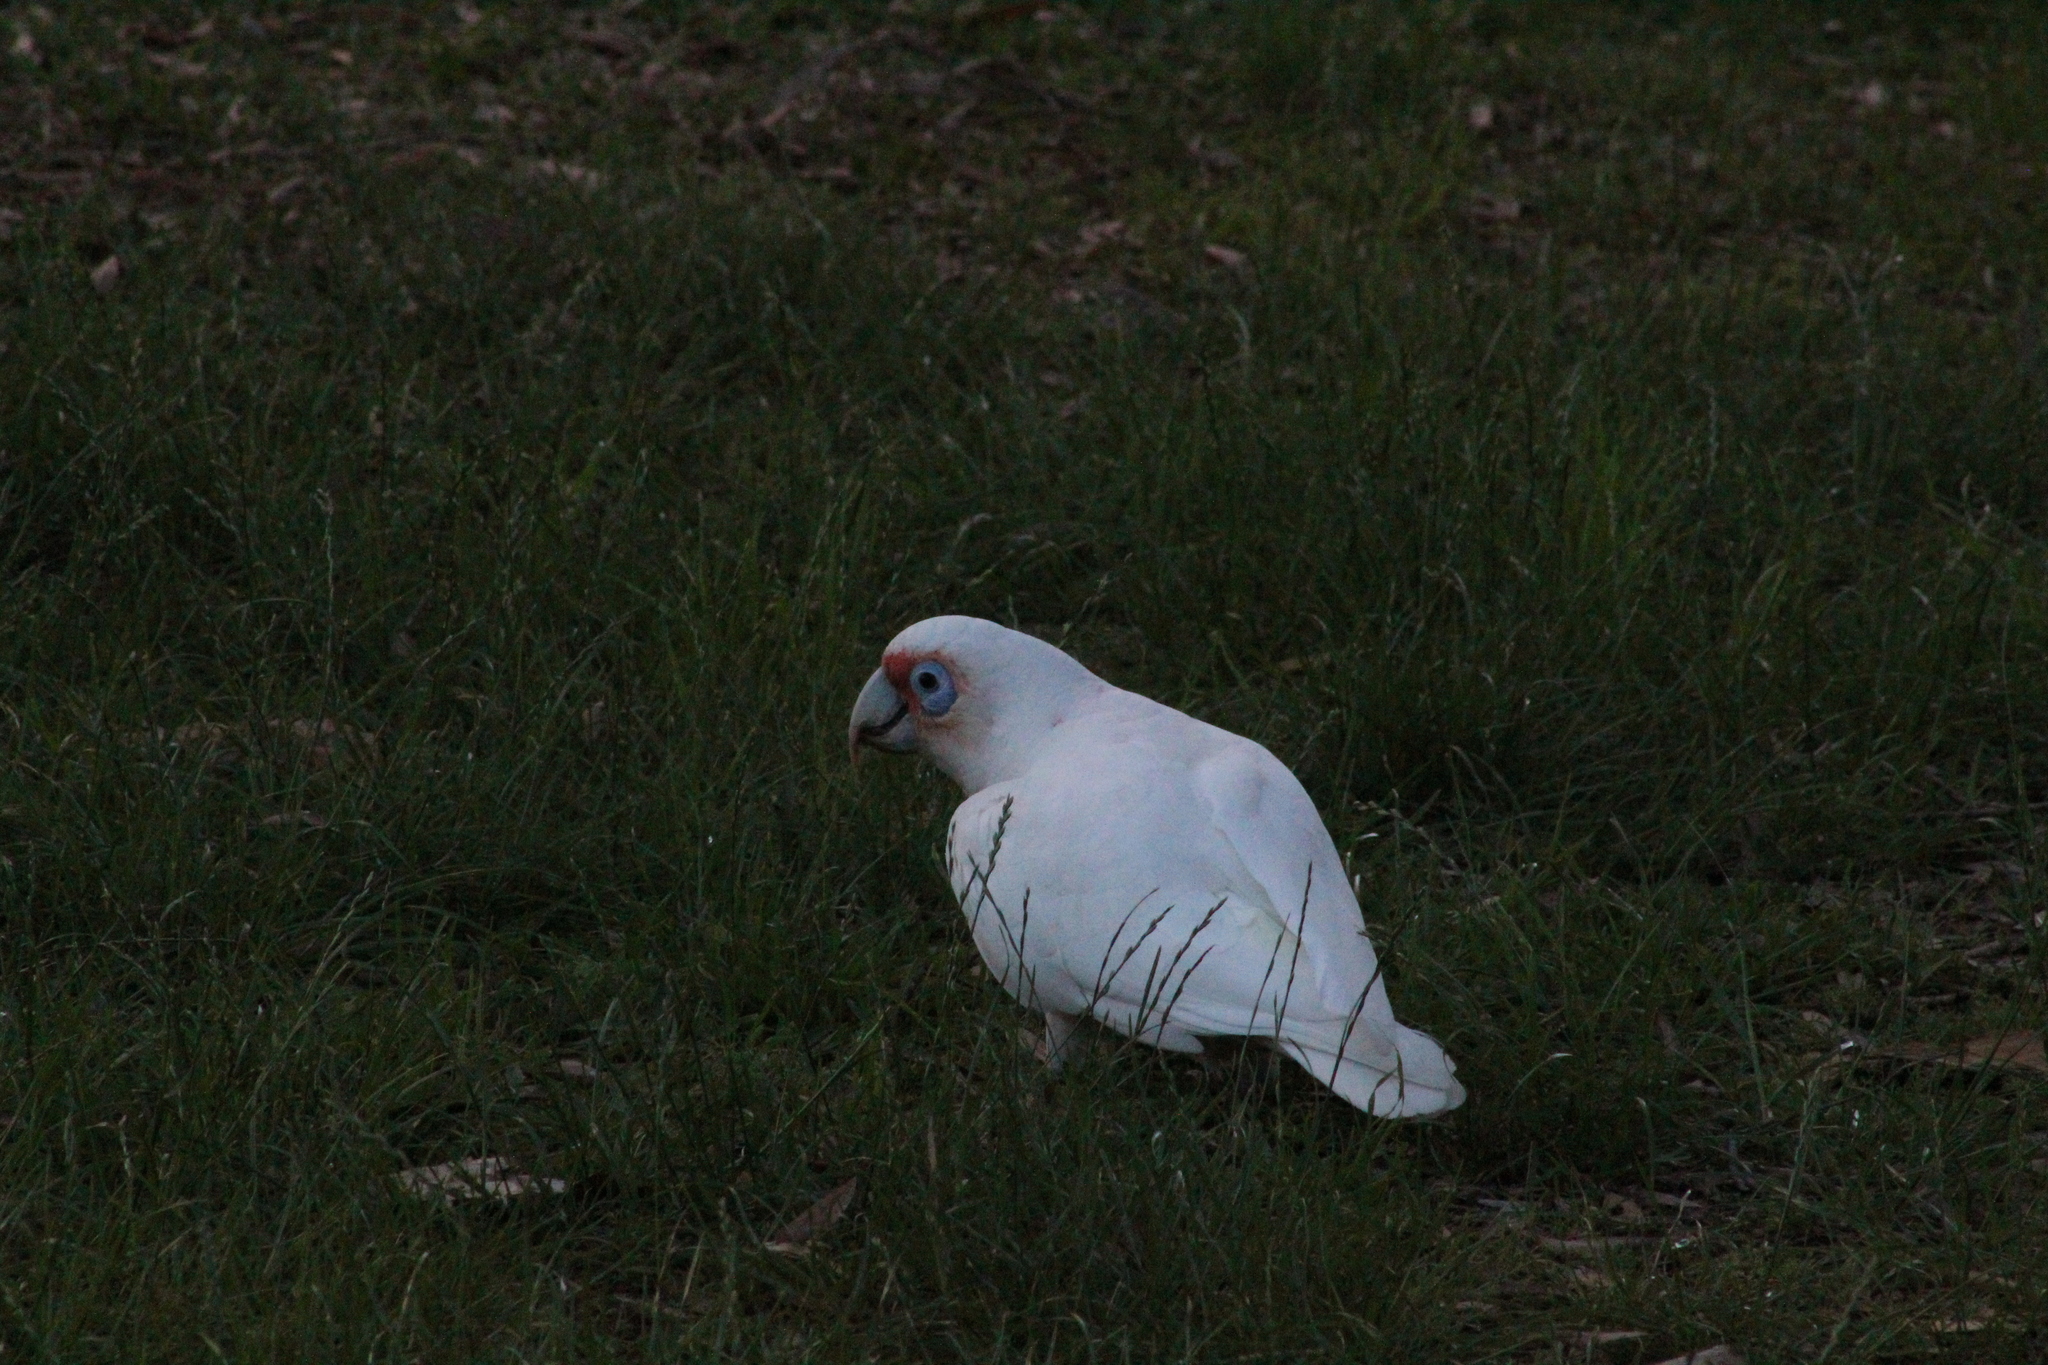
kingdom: Animalia
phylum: Chordata
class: Aves
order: Psittaciformes
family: Psittacidae
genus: Cacatua
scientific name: Cacatua tenuirostris
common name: Long-billed corella
